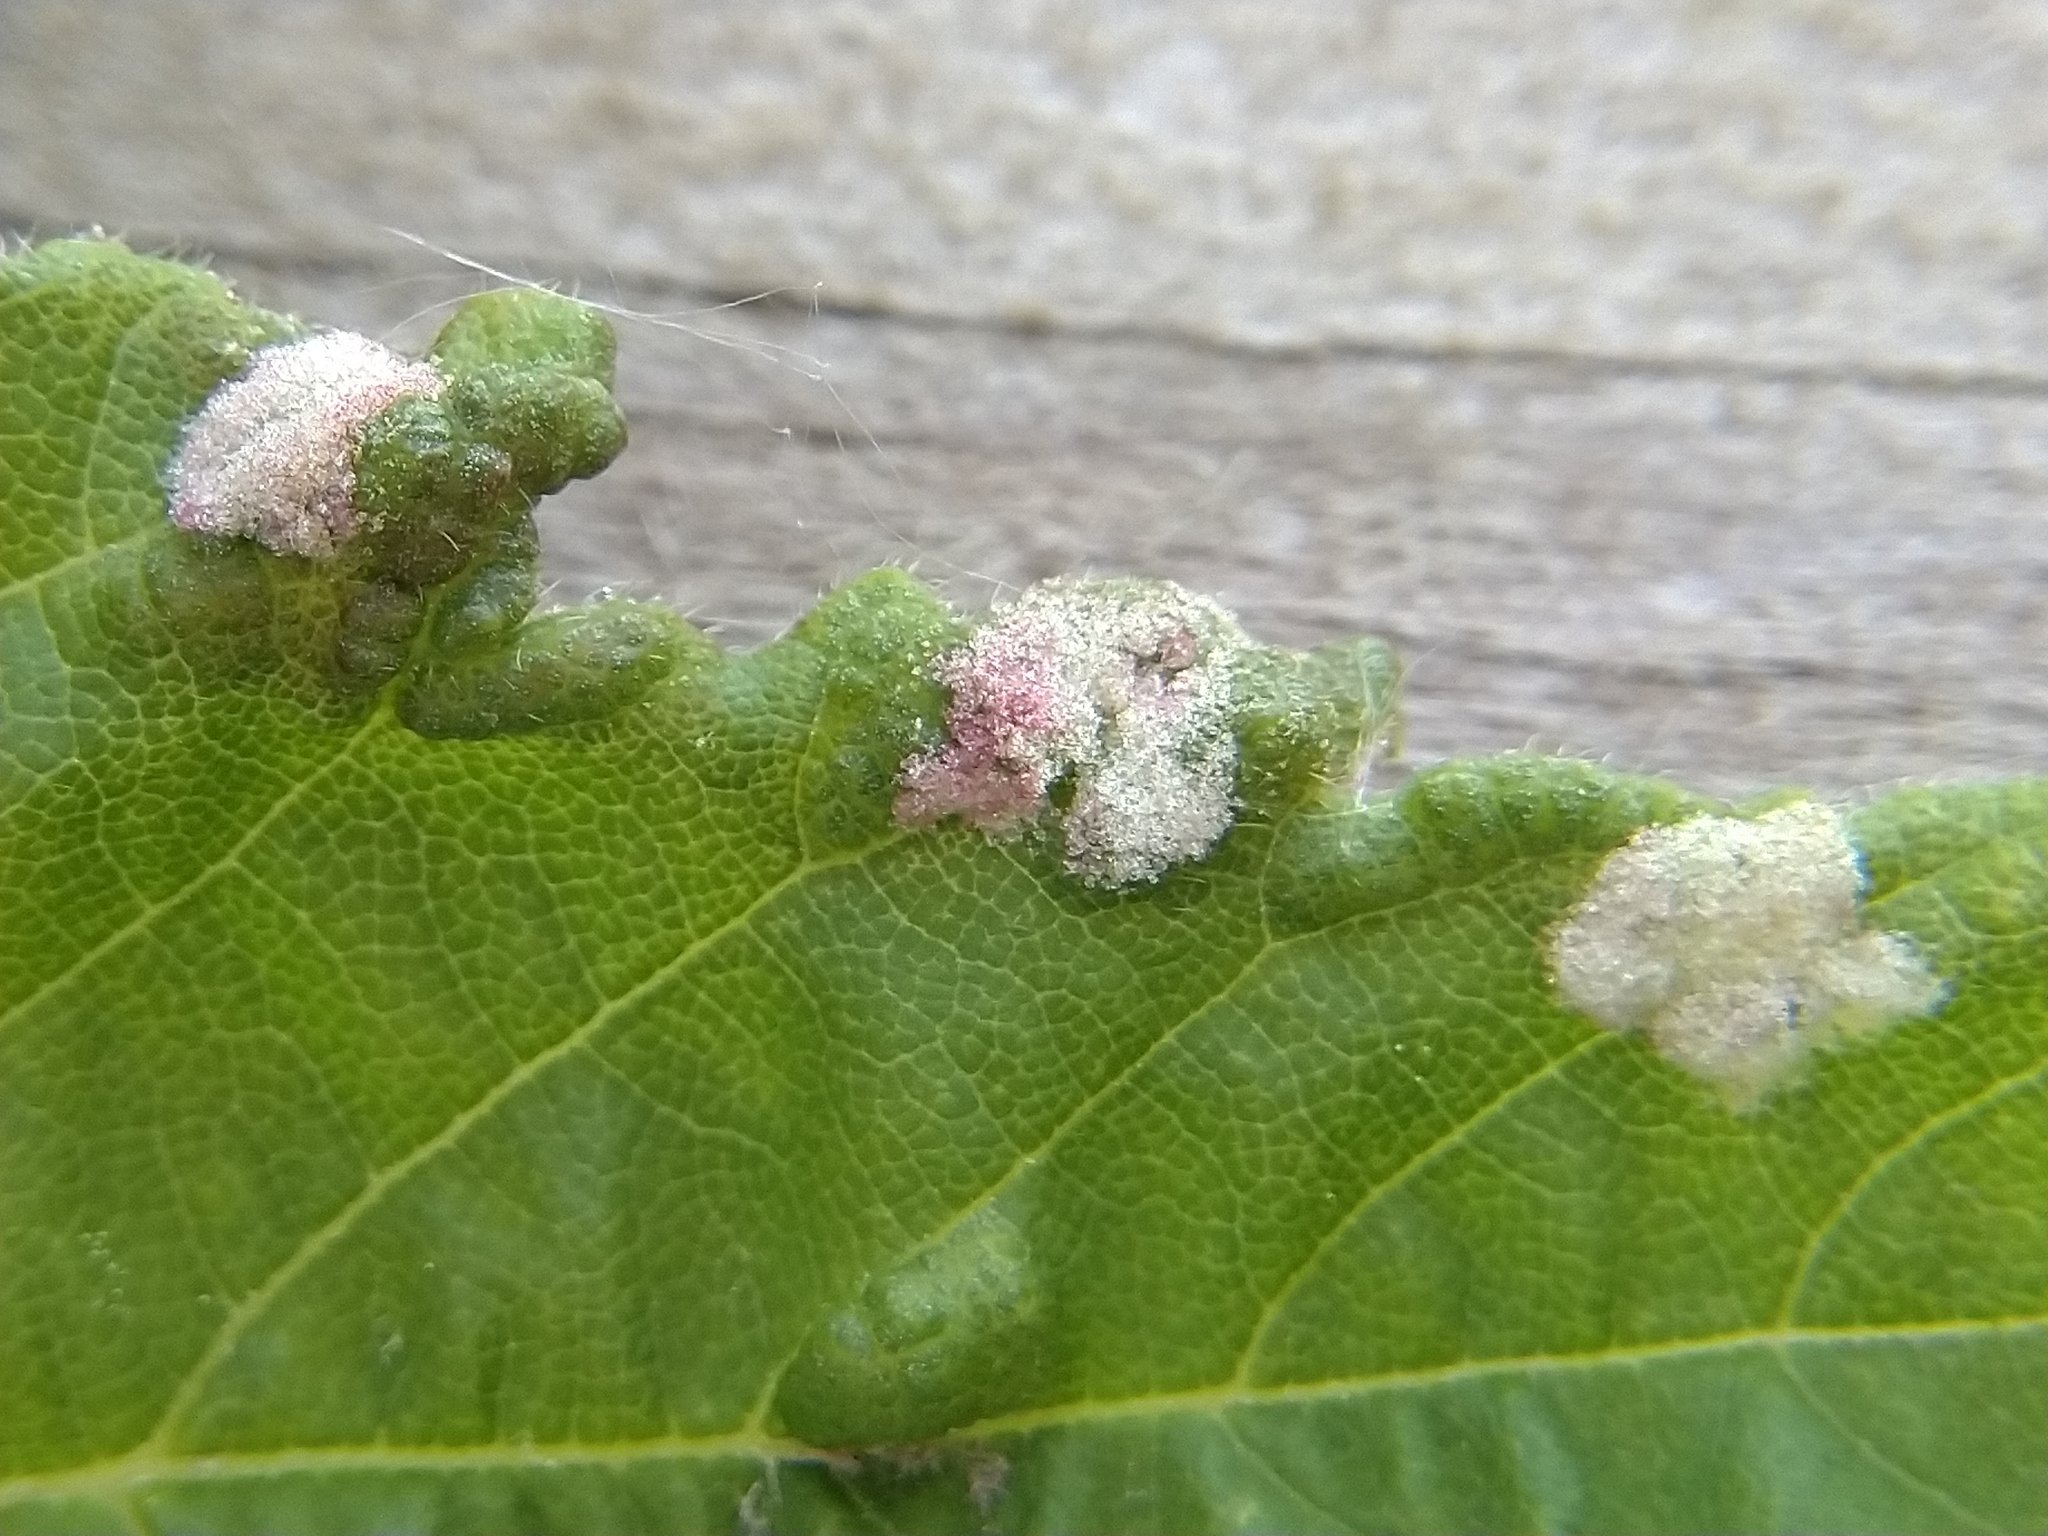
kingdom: Animalia
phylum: Arthropoda
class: Arachnida
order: Trombidiformes
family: Eriophyidae
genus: Aceria
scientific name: Aceria
